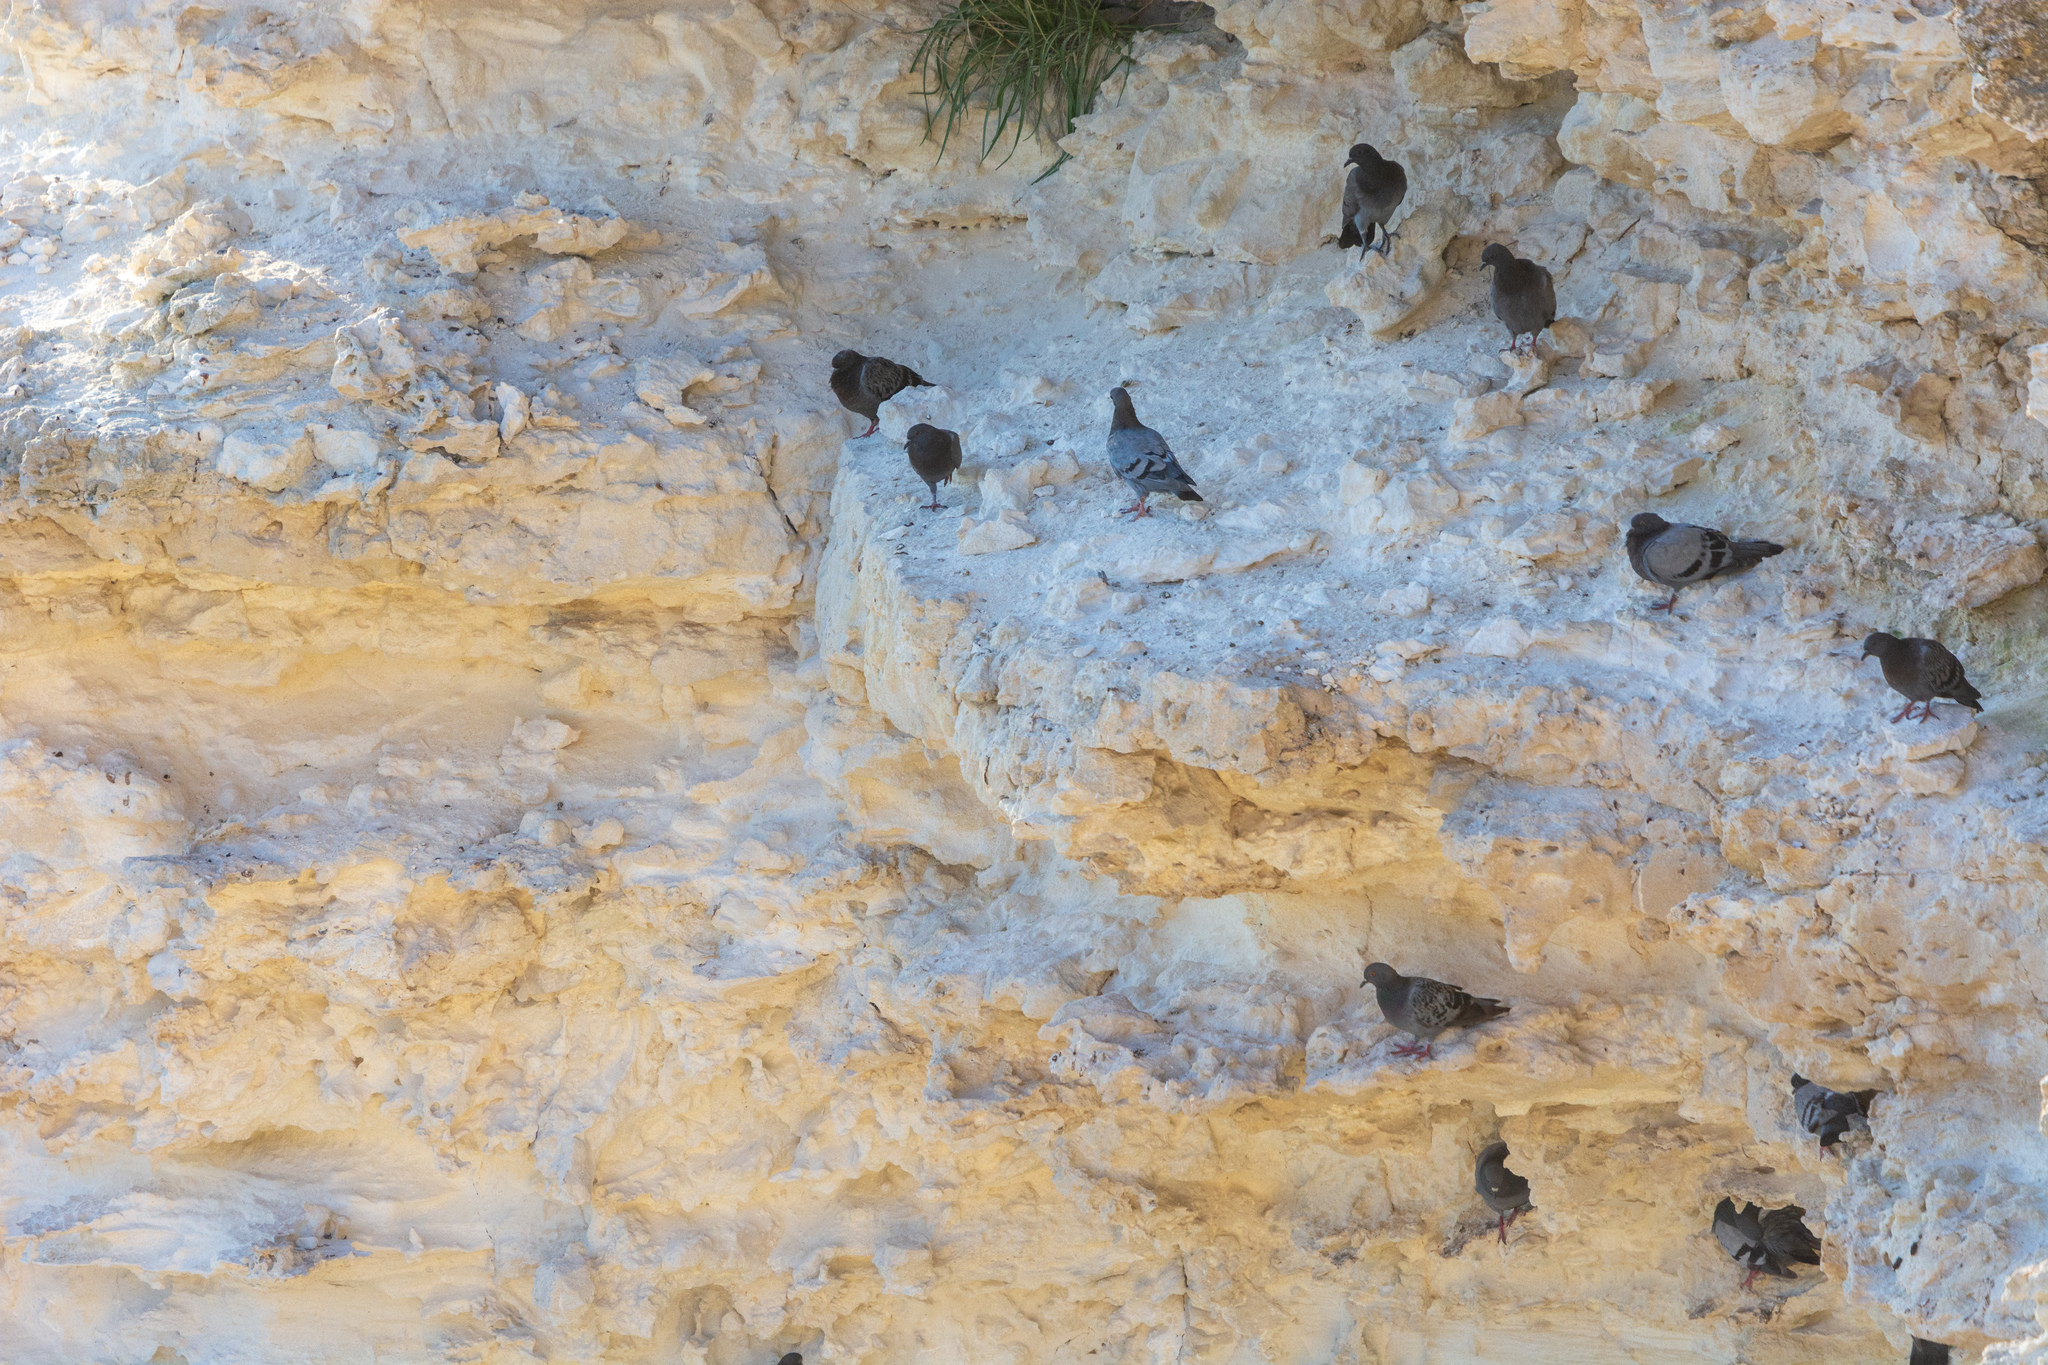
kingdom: Animalia
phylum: Chordata
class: Aves
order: Columbiformes
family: Columbidae
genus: Columba
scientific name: Columba livia
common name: Rock pigeon
